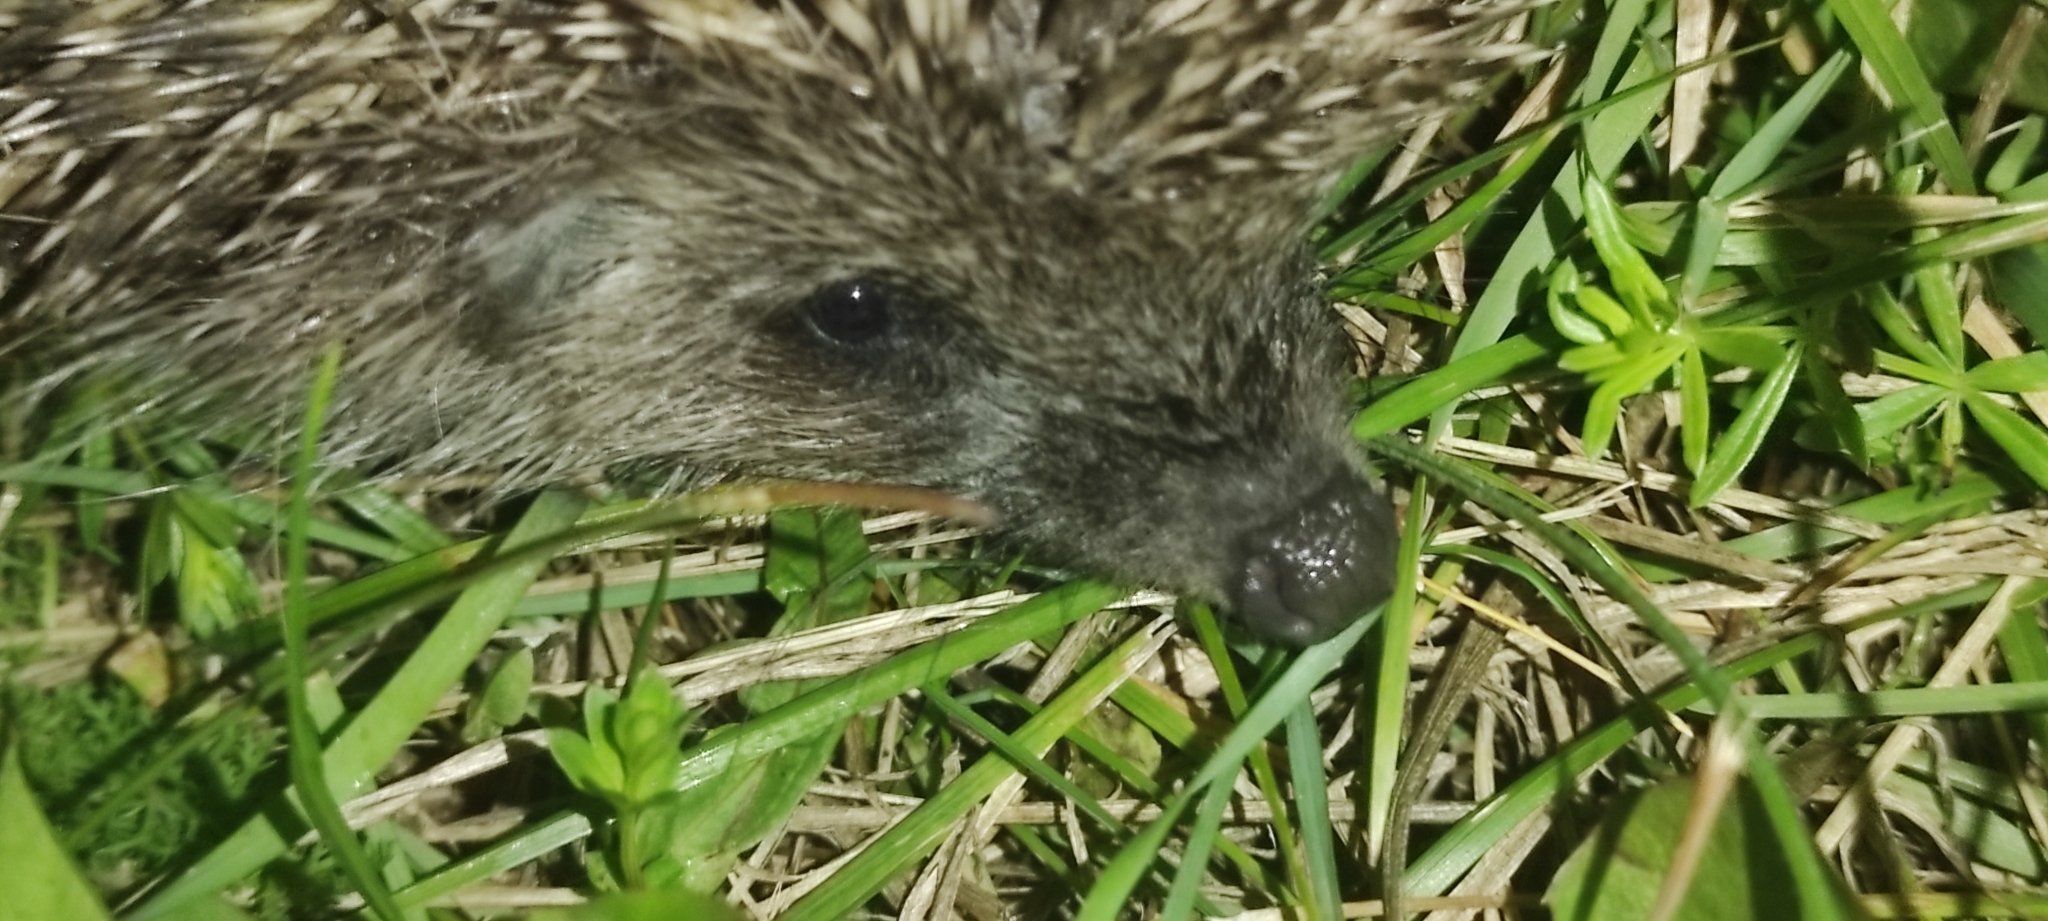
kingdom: Animalia
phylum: Chordata
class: Mammalia
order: Erinaceomorpha
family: Erinaceidae
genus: Erinaceus
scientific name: Erinaceus roumanicus
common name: Northern white-breasted hedgehog
